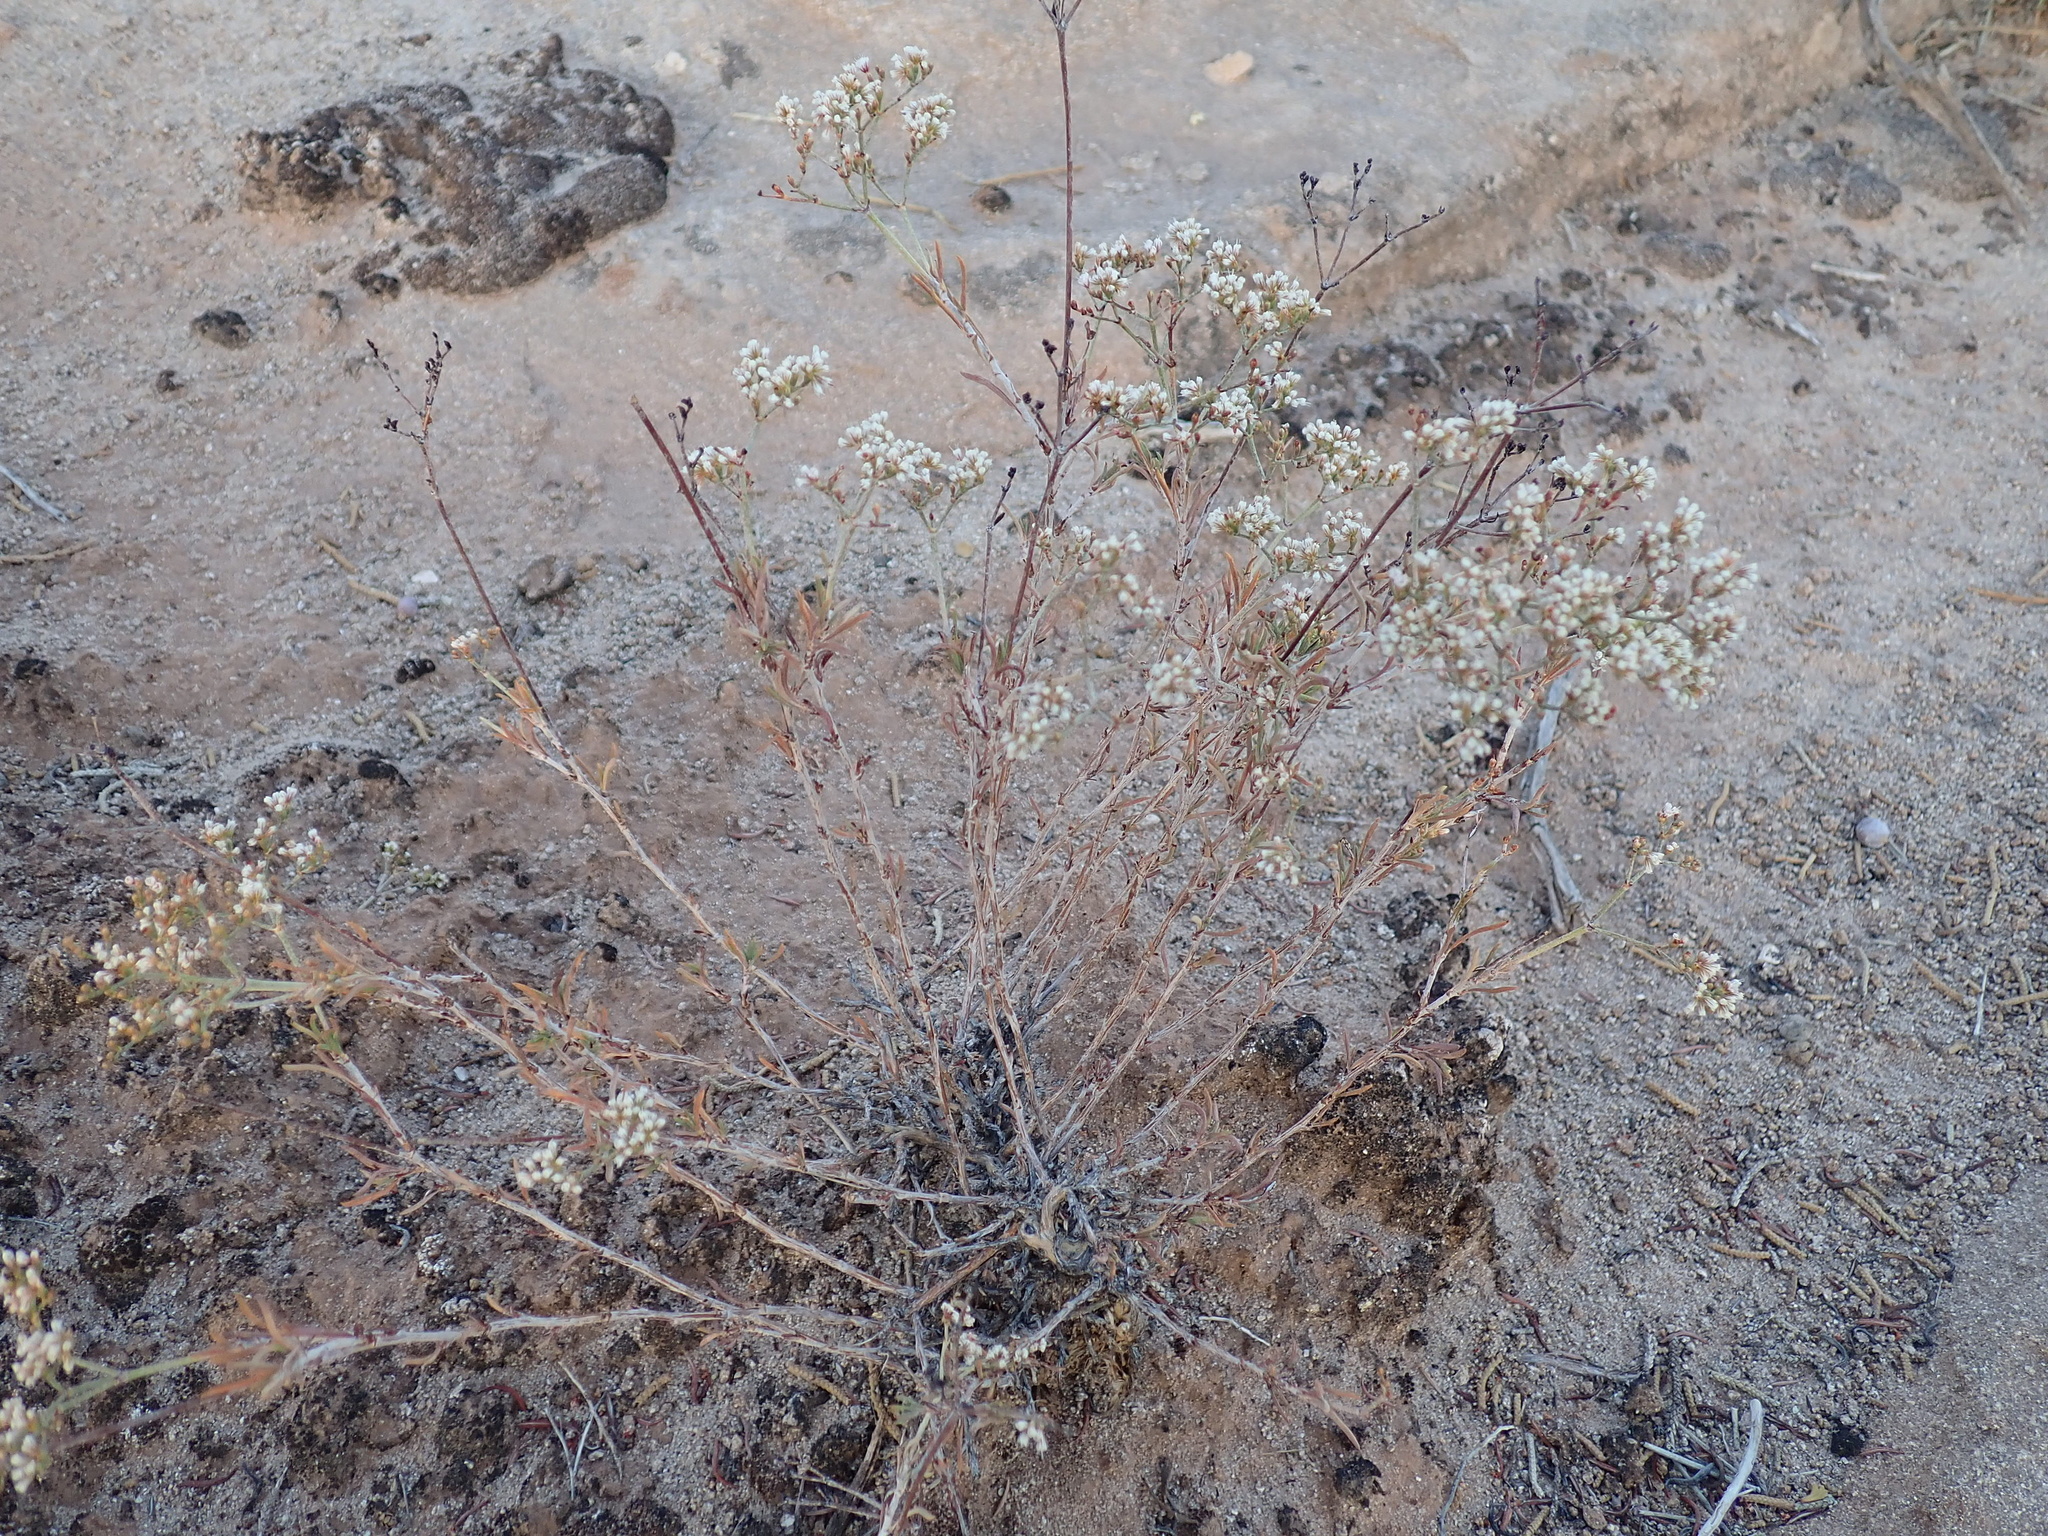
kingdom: Plantae
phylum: Tracheophyta
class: Magnoliopsida
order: Caryophyllales
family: Polygonaceae
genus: Eriogonum
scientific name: Eriogonum microtheca
